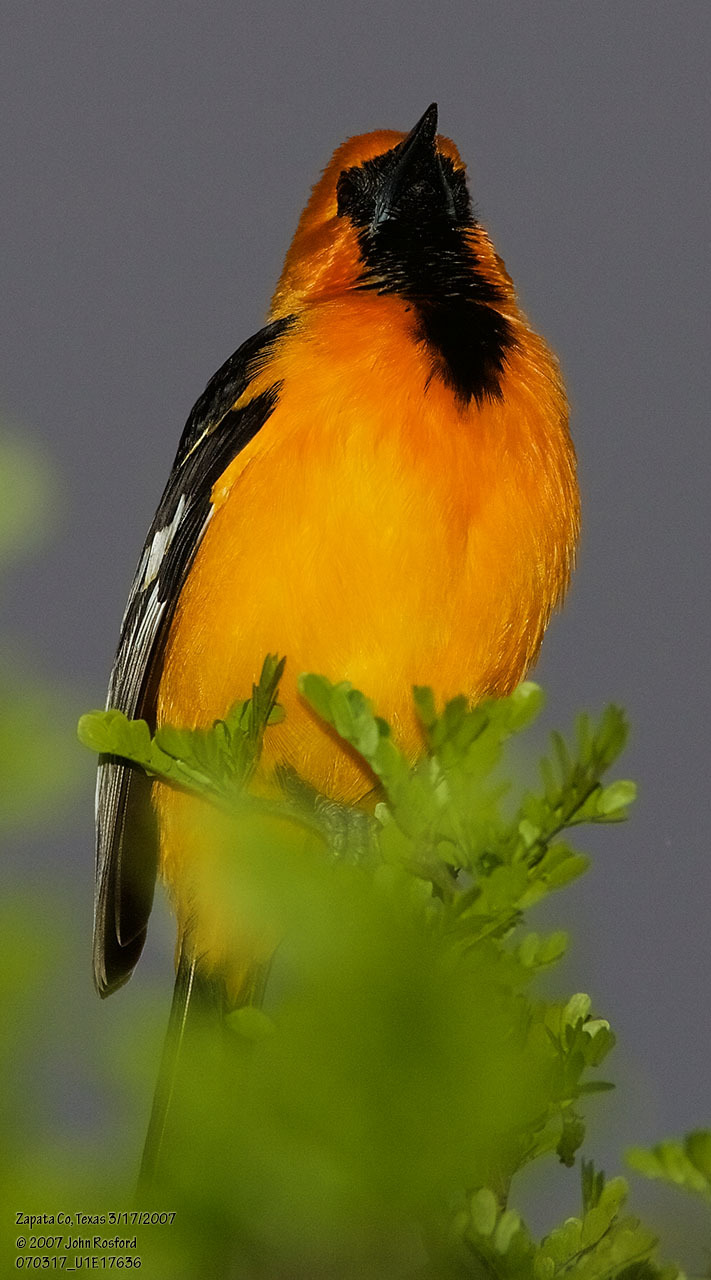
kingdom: Animalia
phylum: Chordata
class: Aves
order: Passeriformes
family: Icteridae
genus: Icterus
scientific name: Icterus gularis
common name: Altamira oriole
